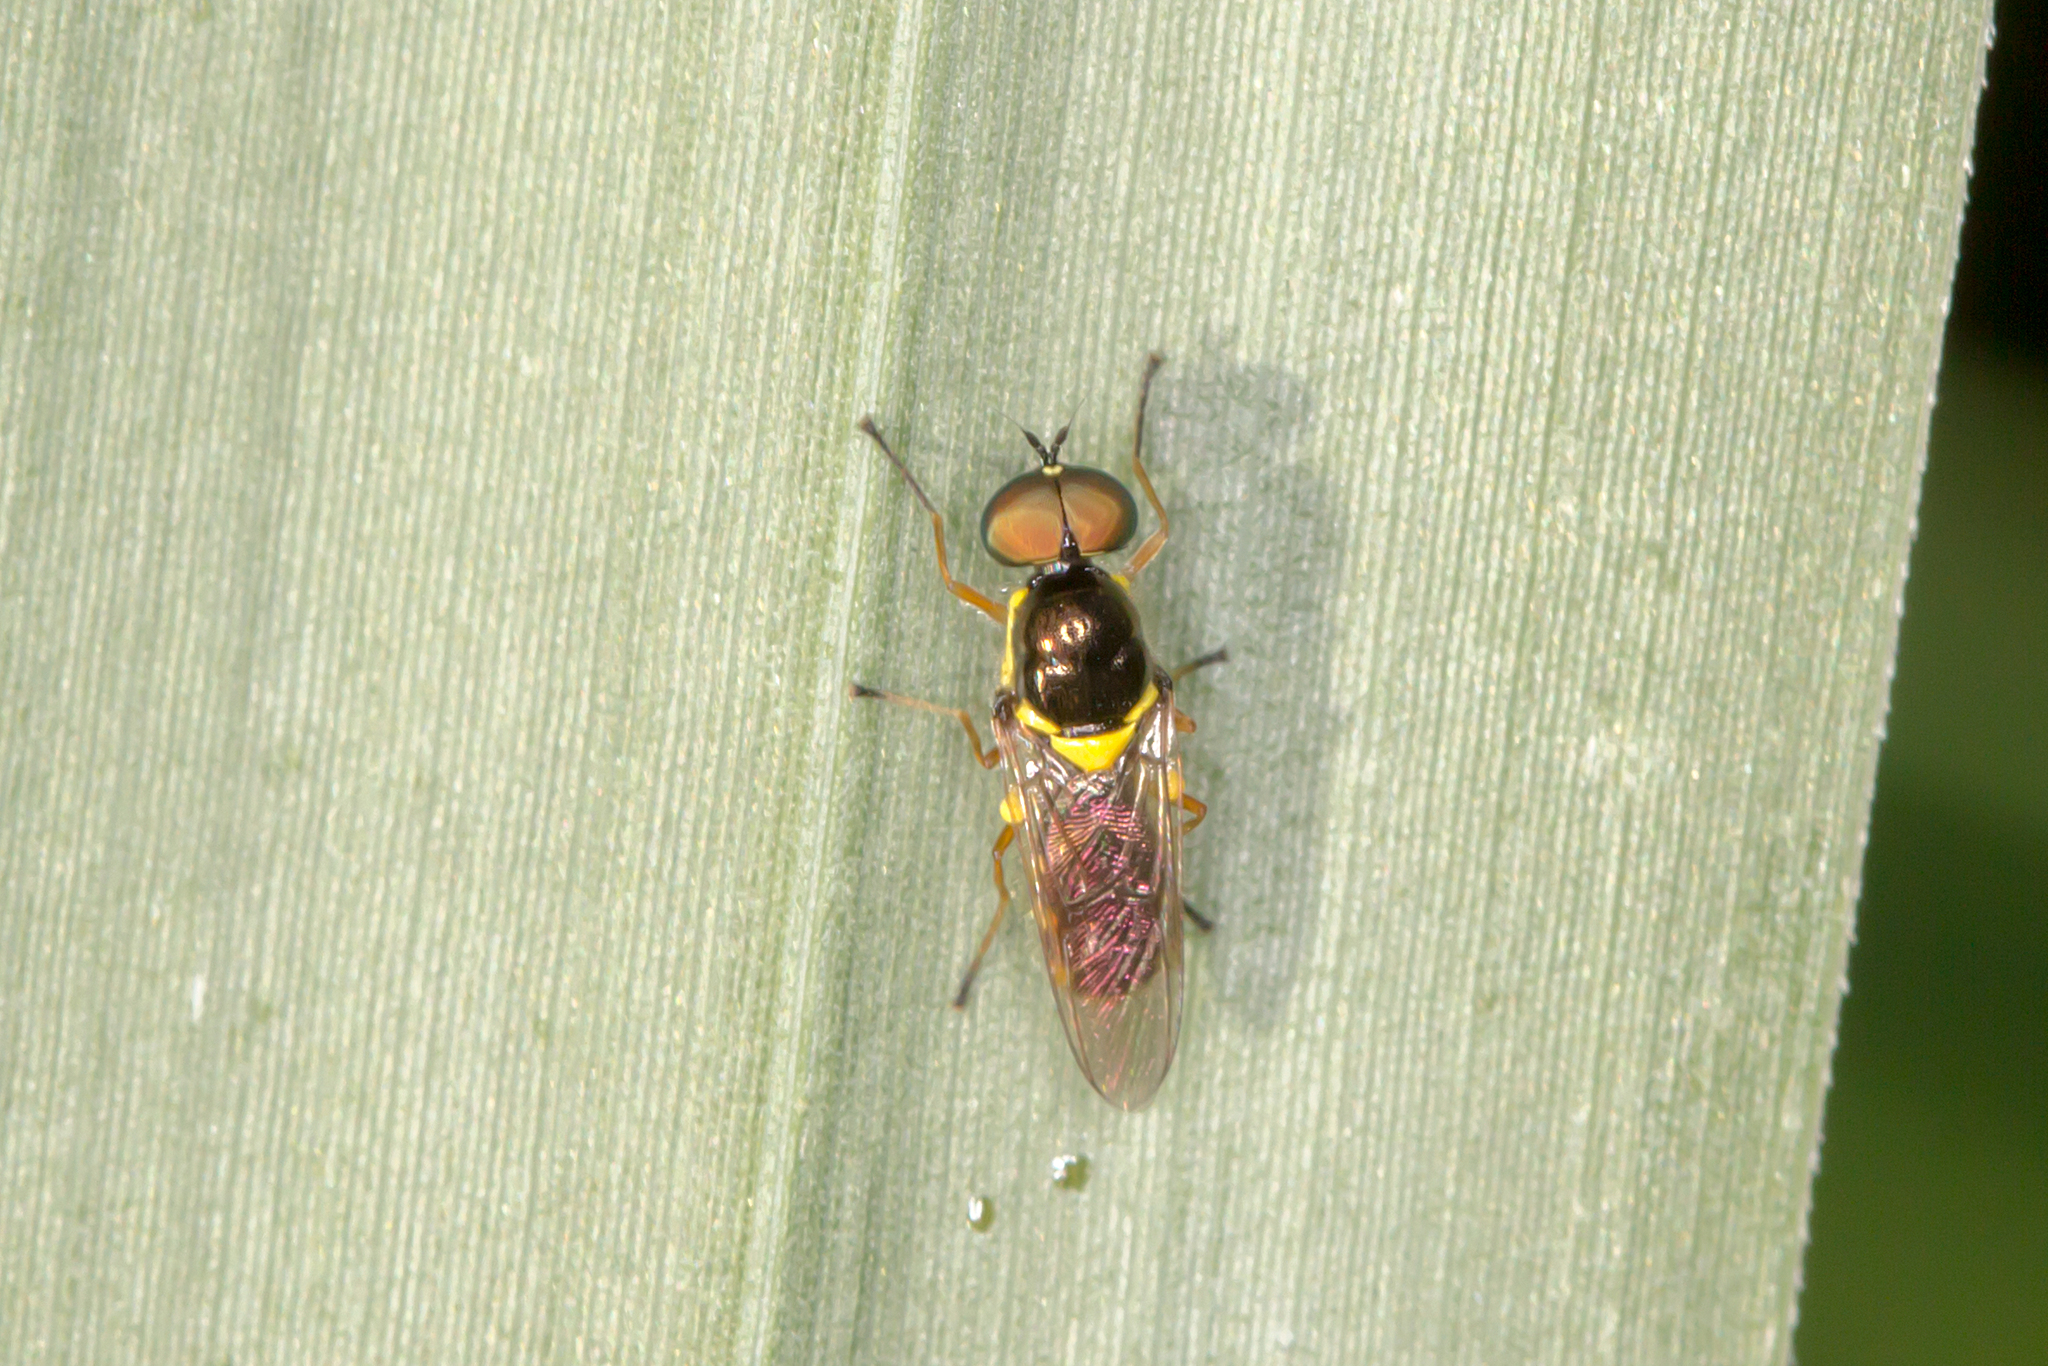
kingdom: Animalia
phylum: Arthropoda
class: Insecta
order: Diptera
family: Stratiomyidae
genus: Acanthasargus
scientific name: Acanthasargus flavipes
